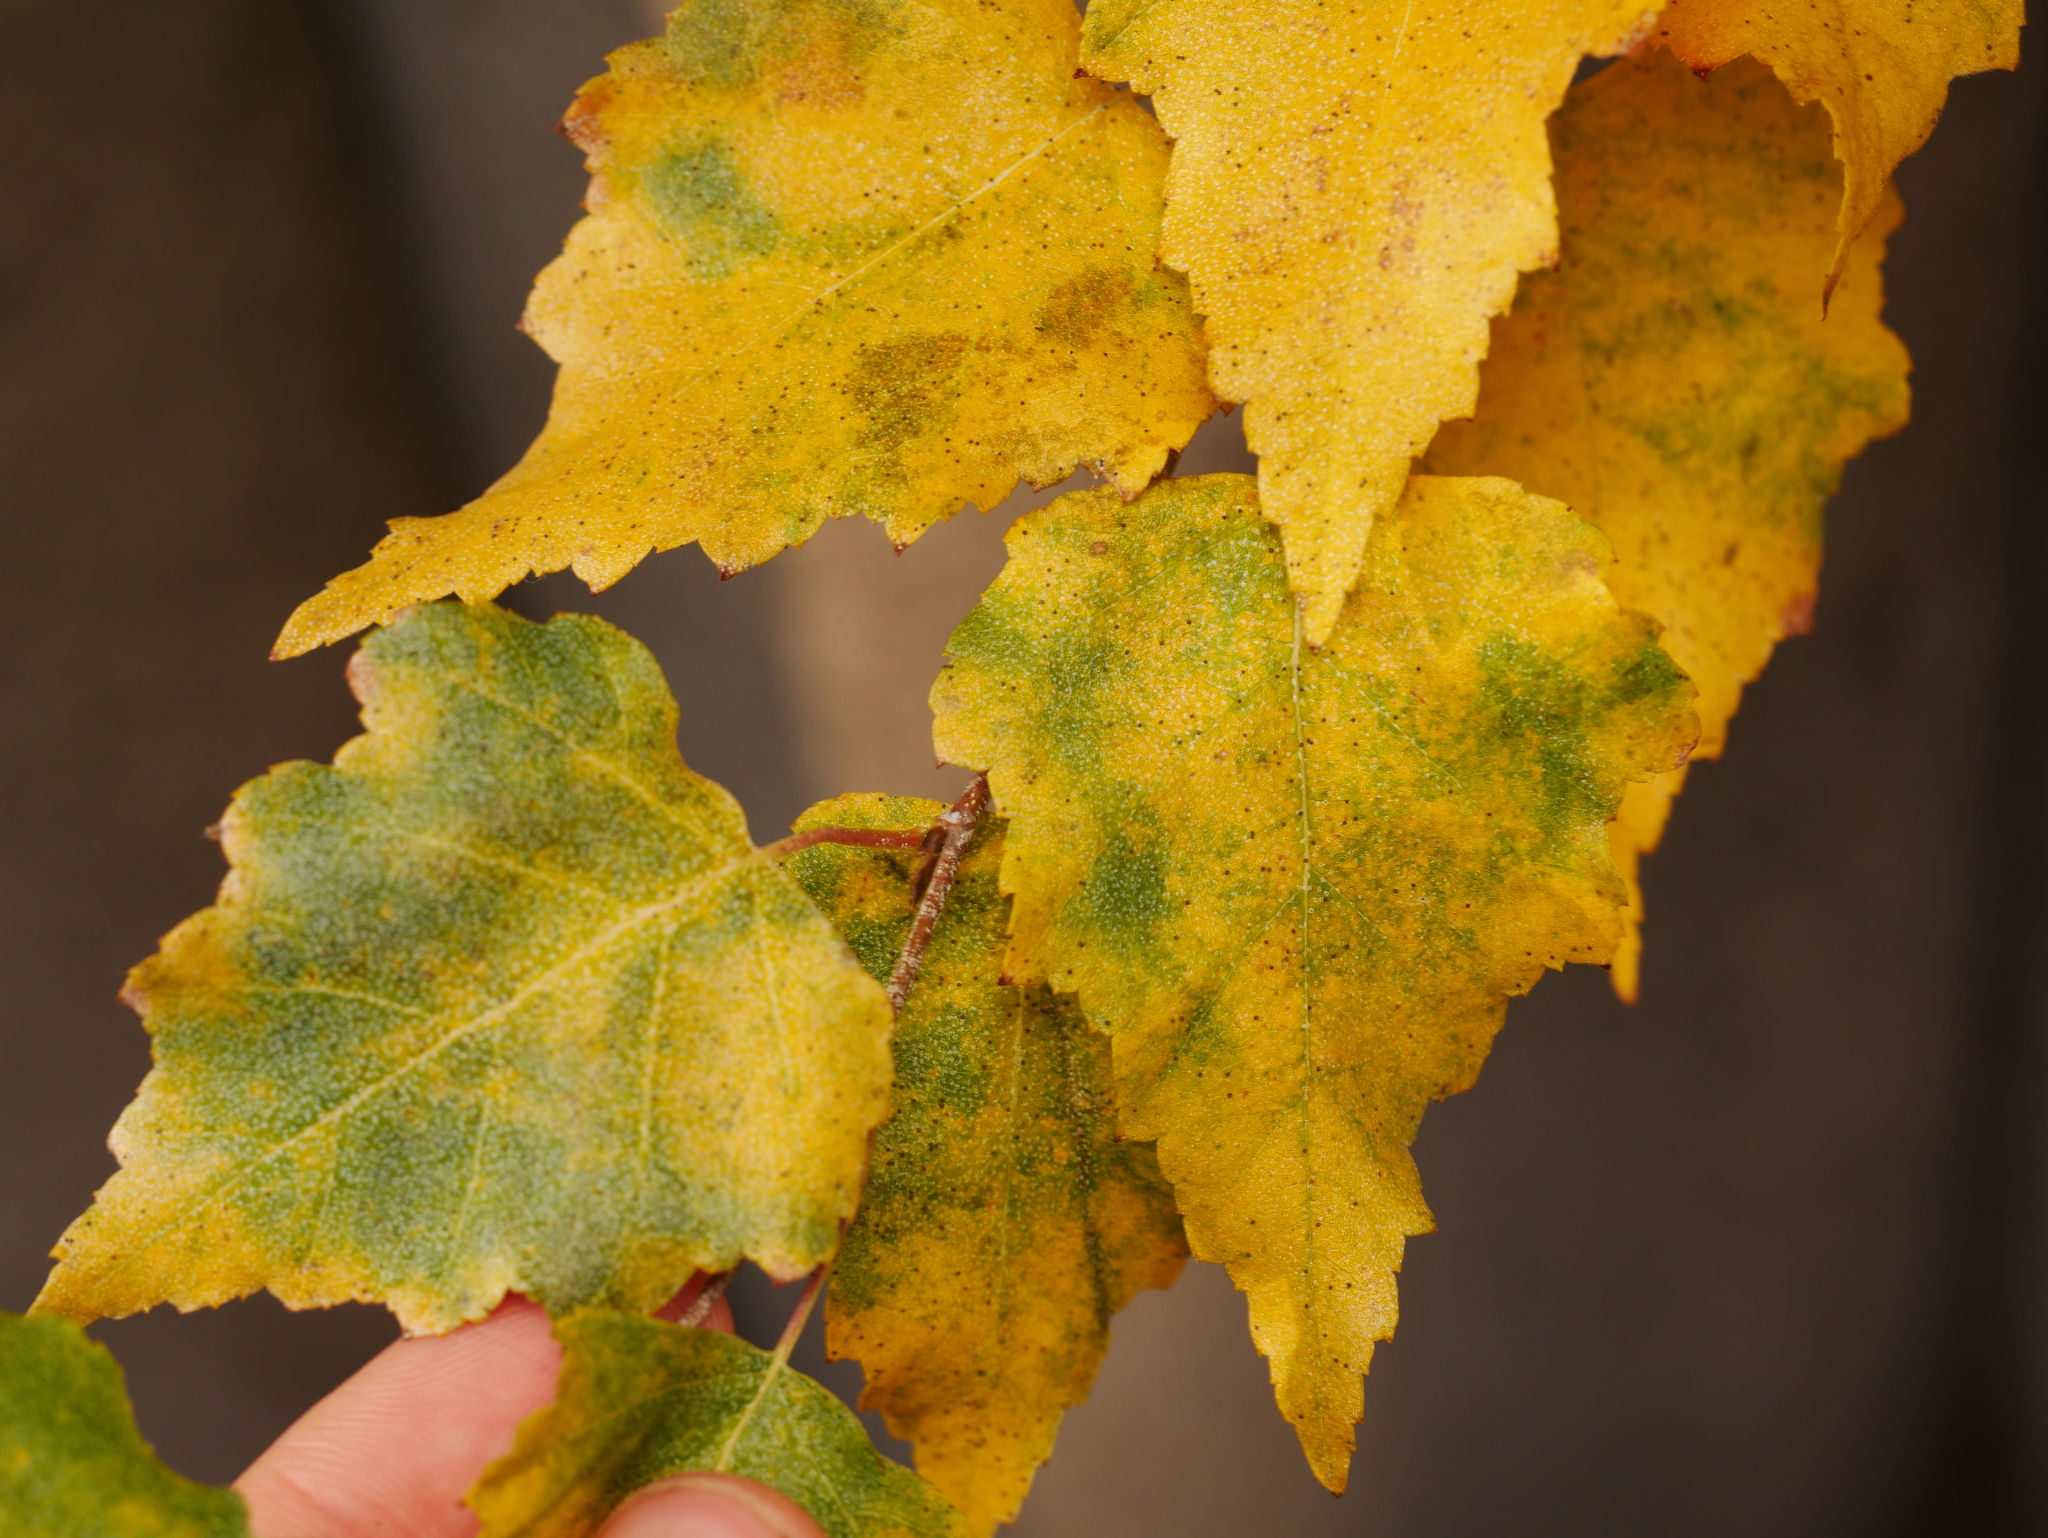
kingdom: Plantae
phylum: Tracheophyta
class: Magnoliopsida
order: Fagales
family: Betulaceae
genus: Betula
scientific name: Betula pendula
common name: Silver birch
